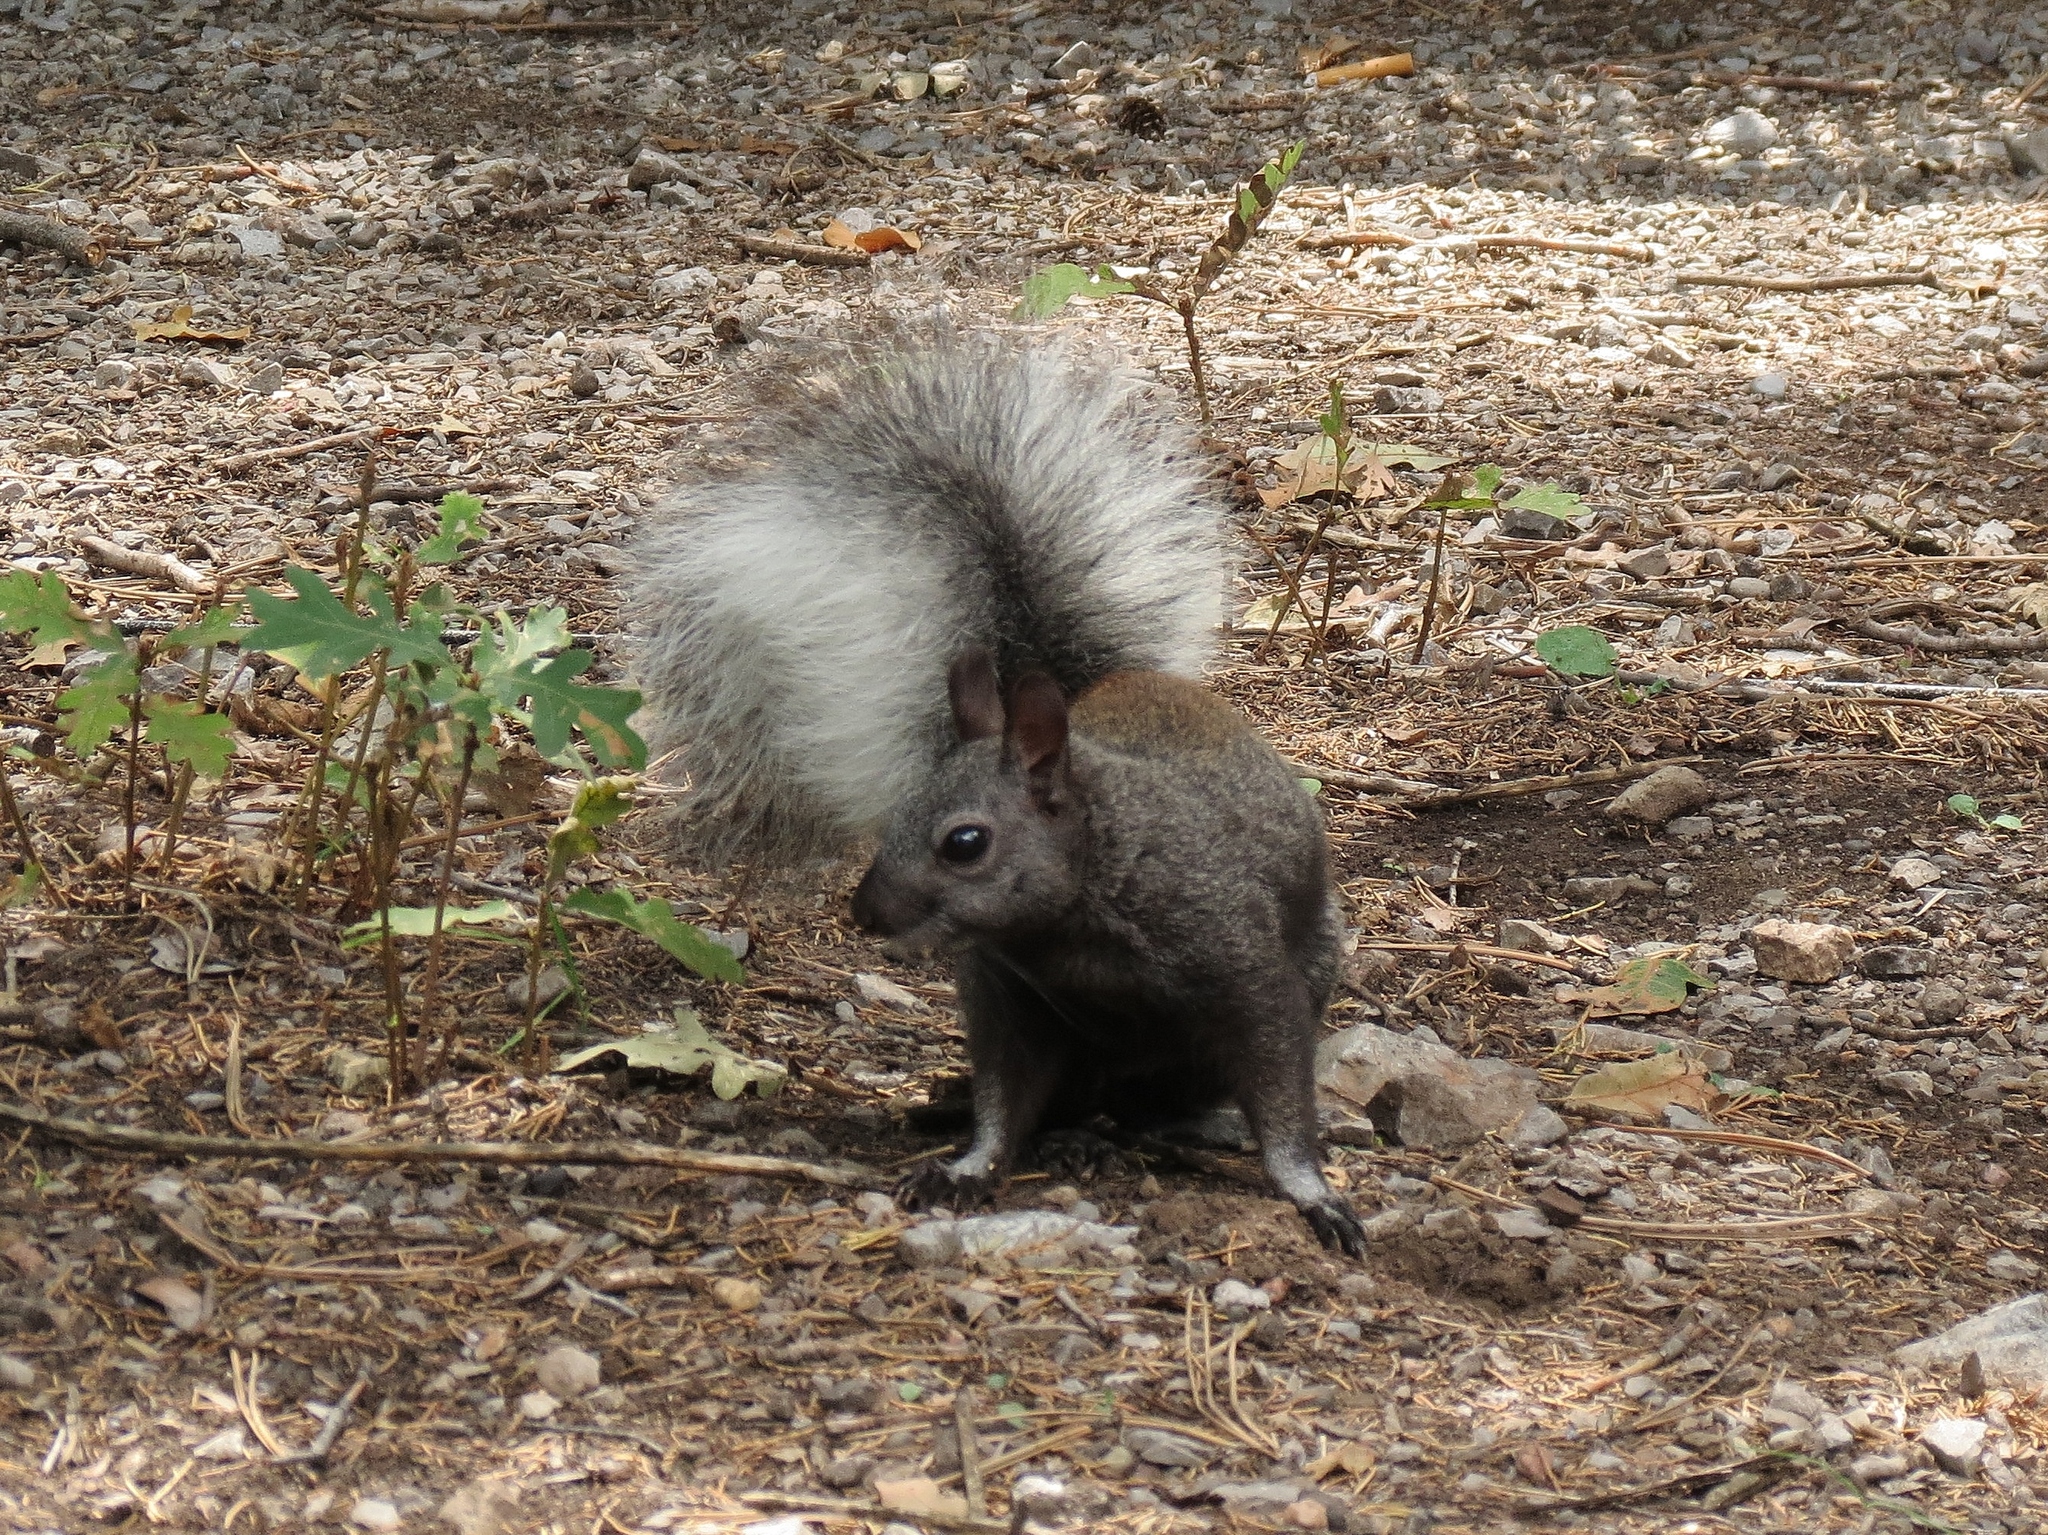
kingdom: Animalia
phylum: Chordata
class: Mammalia
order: Rodentia
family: Sciuridae
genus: Sciurus
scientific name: Sciurus aberti
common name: Abert's squirrel
